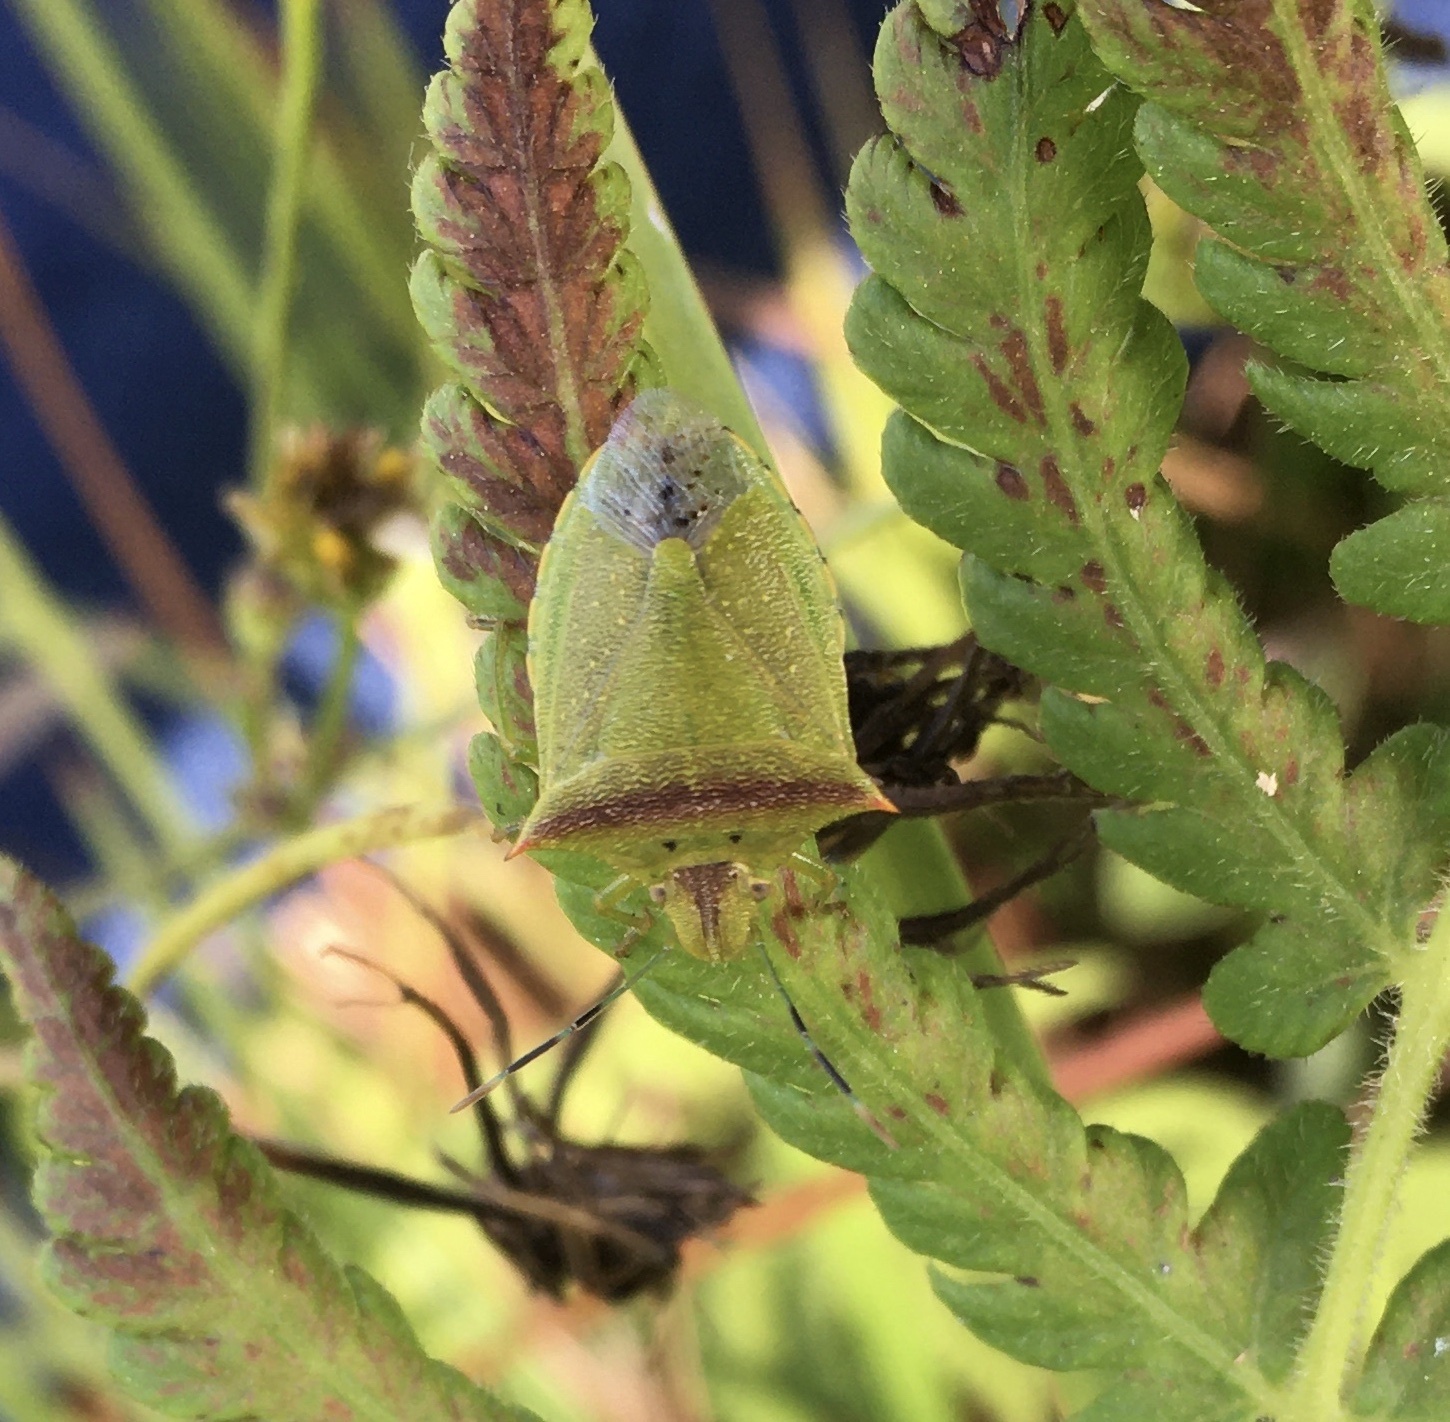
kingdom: Animalia
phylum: Arthropoda
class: Insecta
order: Hemiptera
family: Pentatomidae
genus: Thyanta
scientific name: Thyanta perditor
